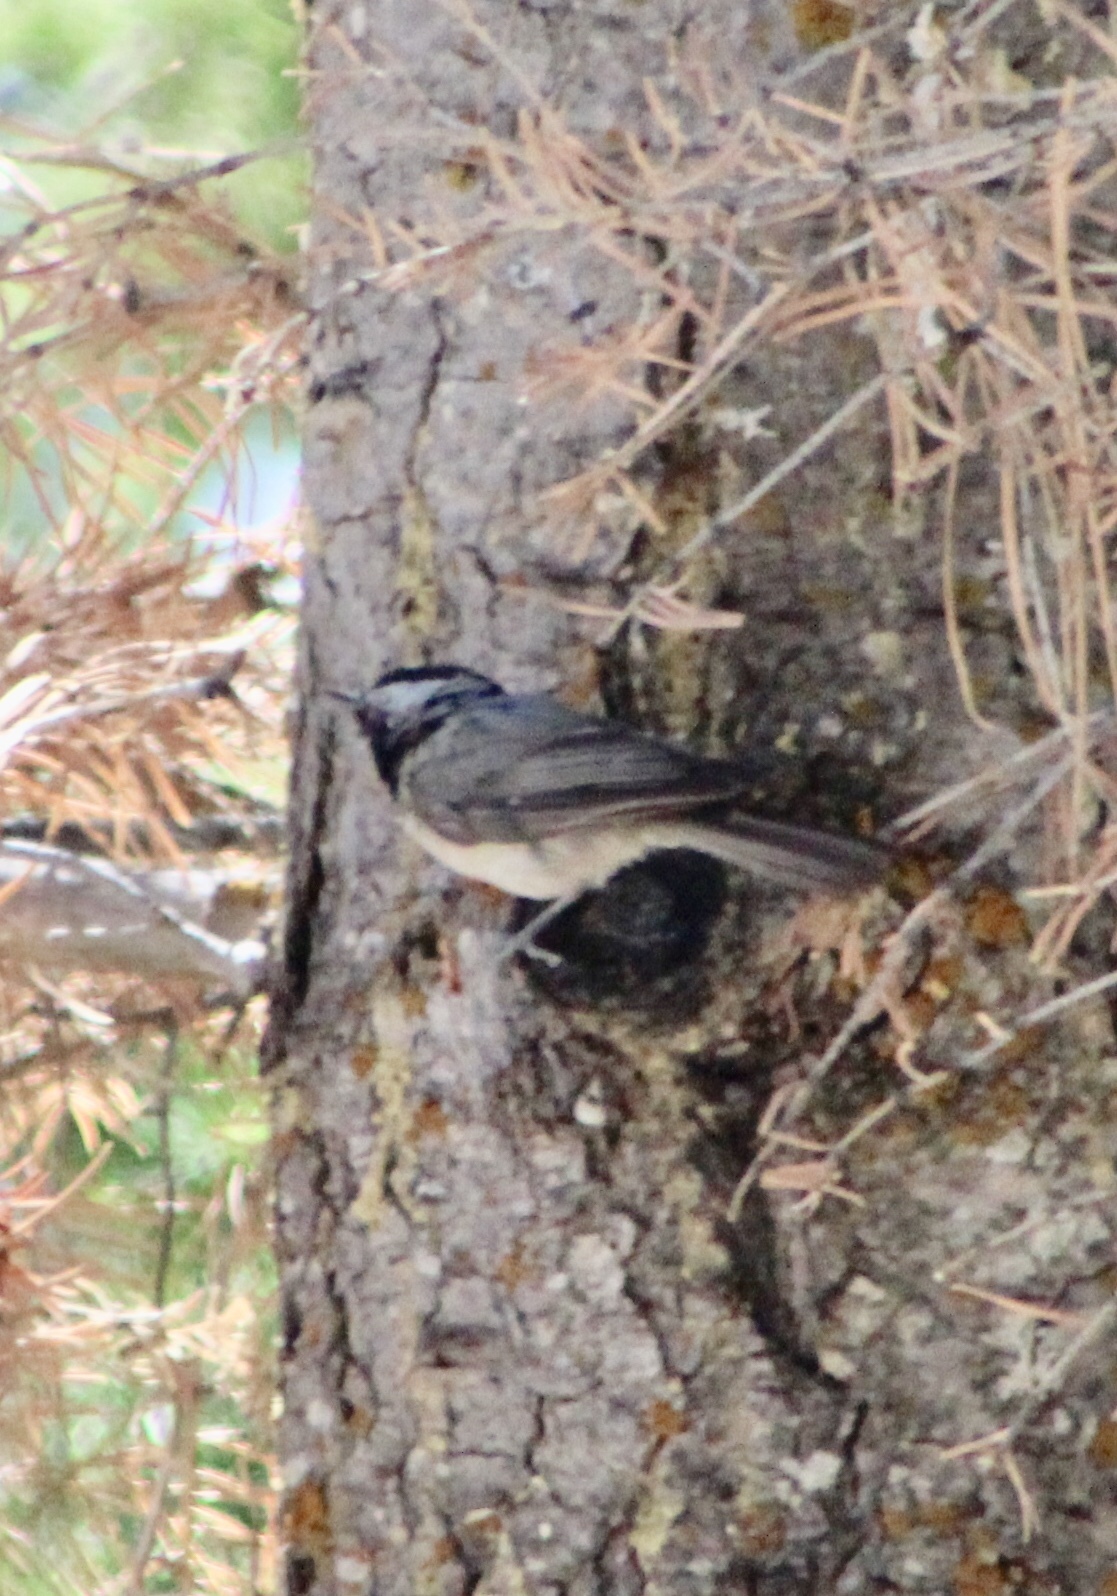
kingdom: Animalia
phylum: Chordata
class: Aves
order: Passeriformes
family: Paridae
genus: Poecile
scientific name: Poecile gambeli
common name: Mountain chickadee
